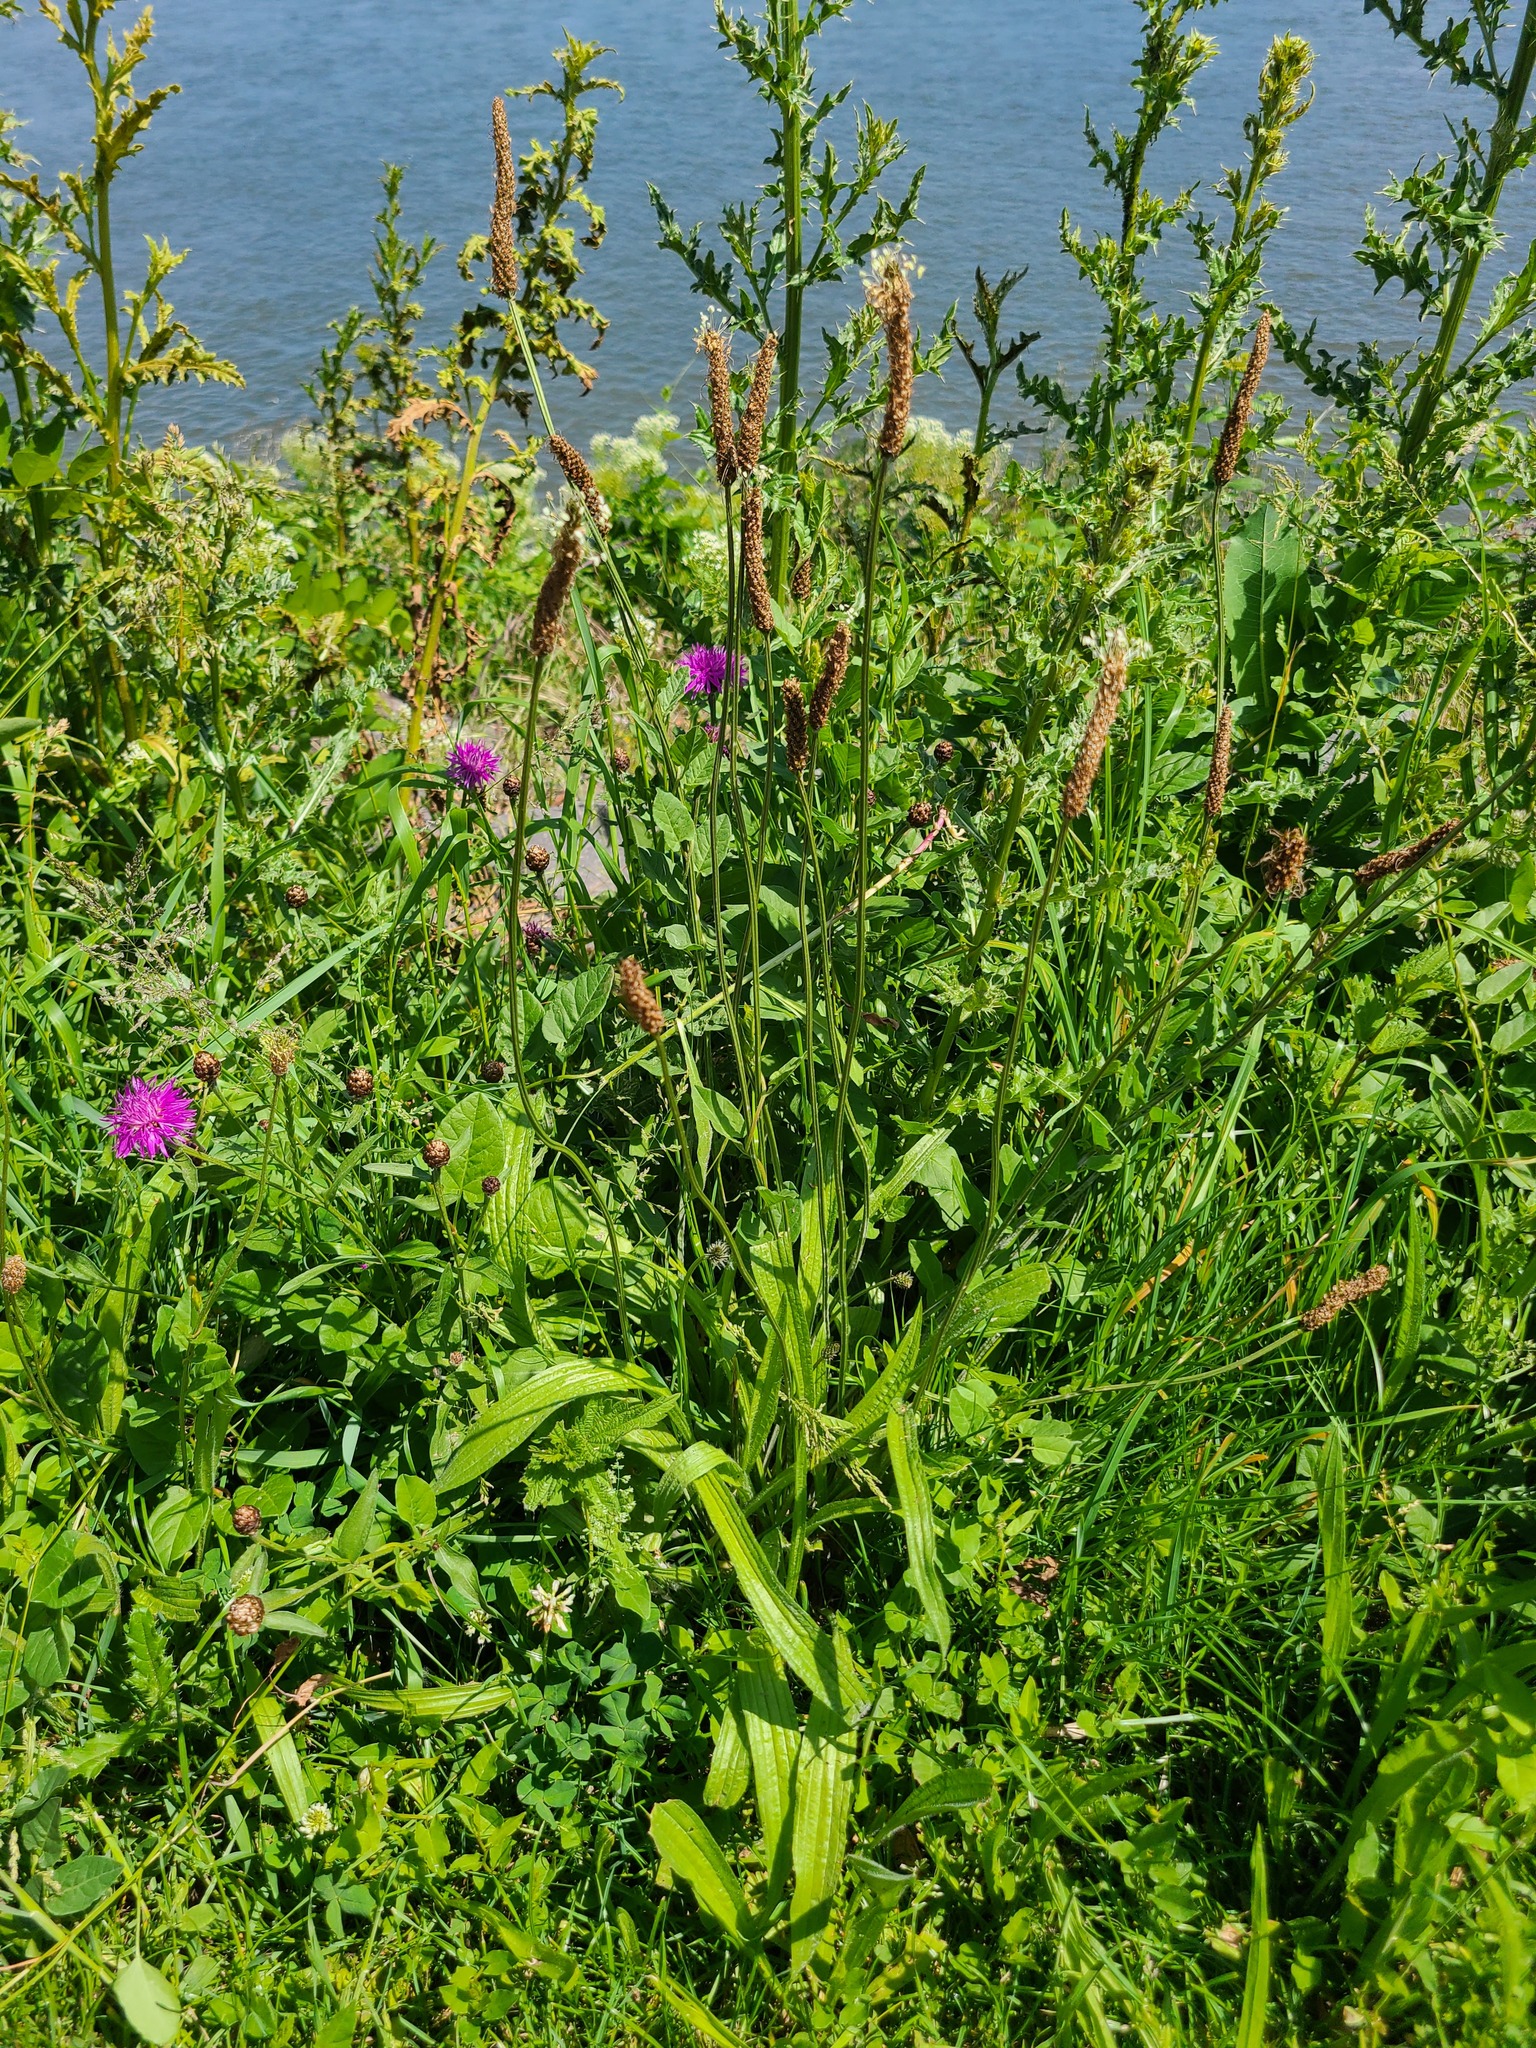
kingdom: Plantae
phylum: Tracheophyta
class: Magnoliopsida
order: Lamiales
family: Plantaginaceae
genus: Plantago
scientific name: Plantago lanceolata
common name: Ribwort plantain
